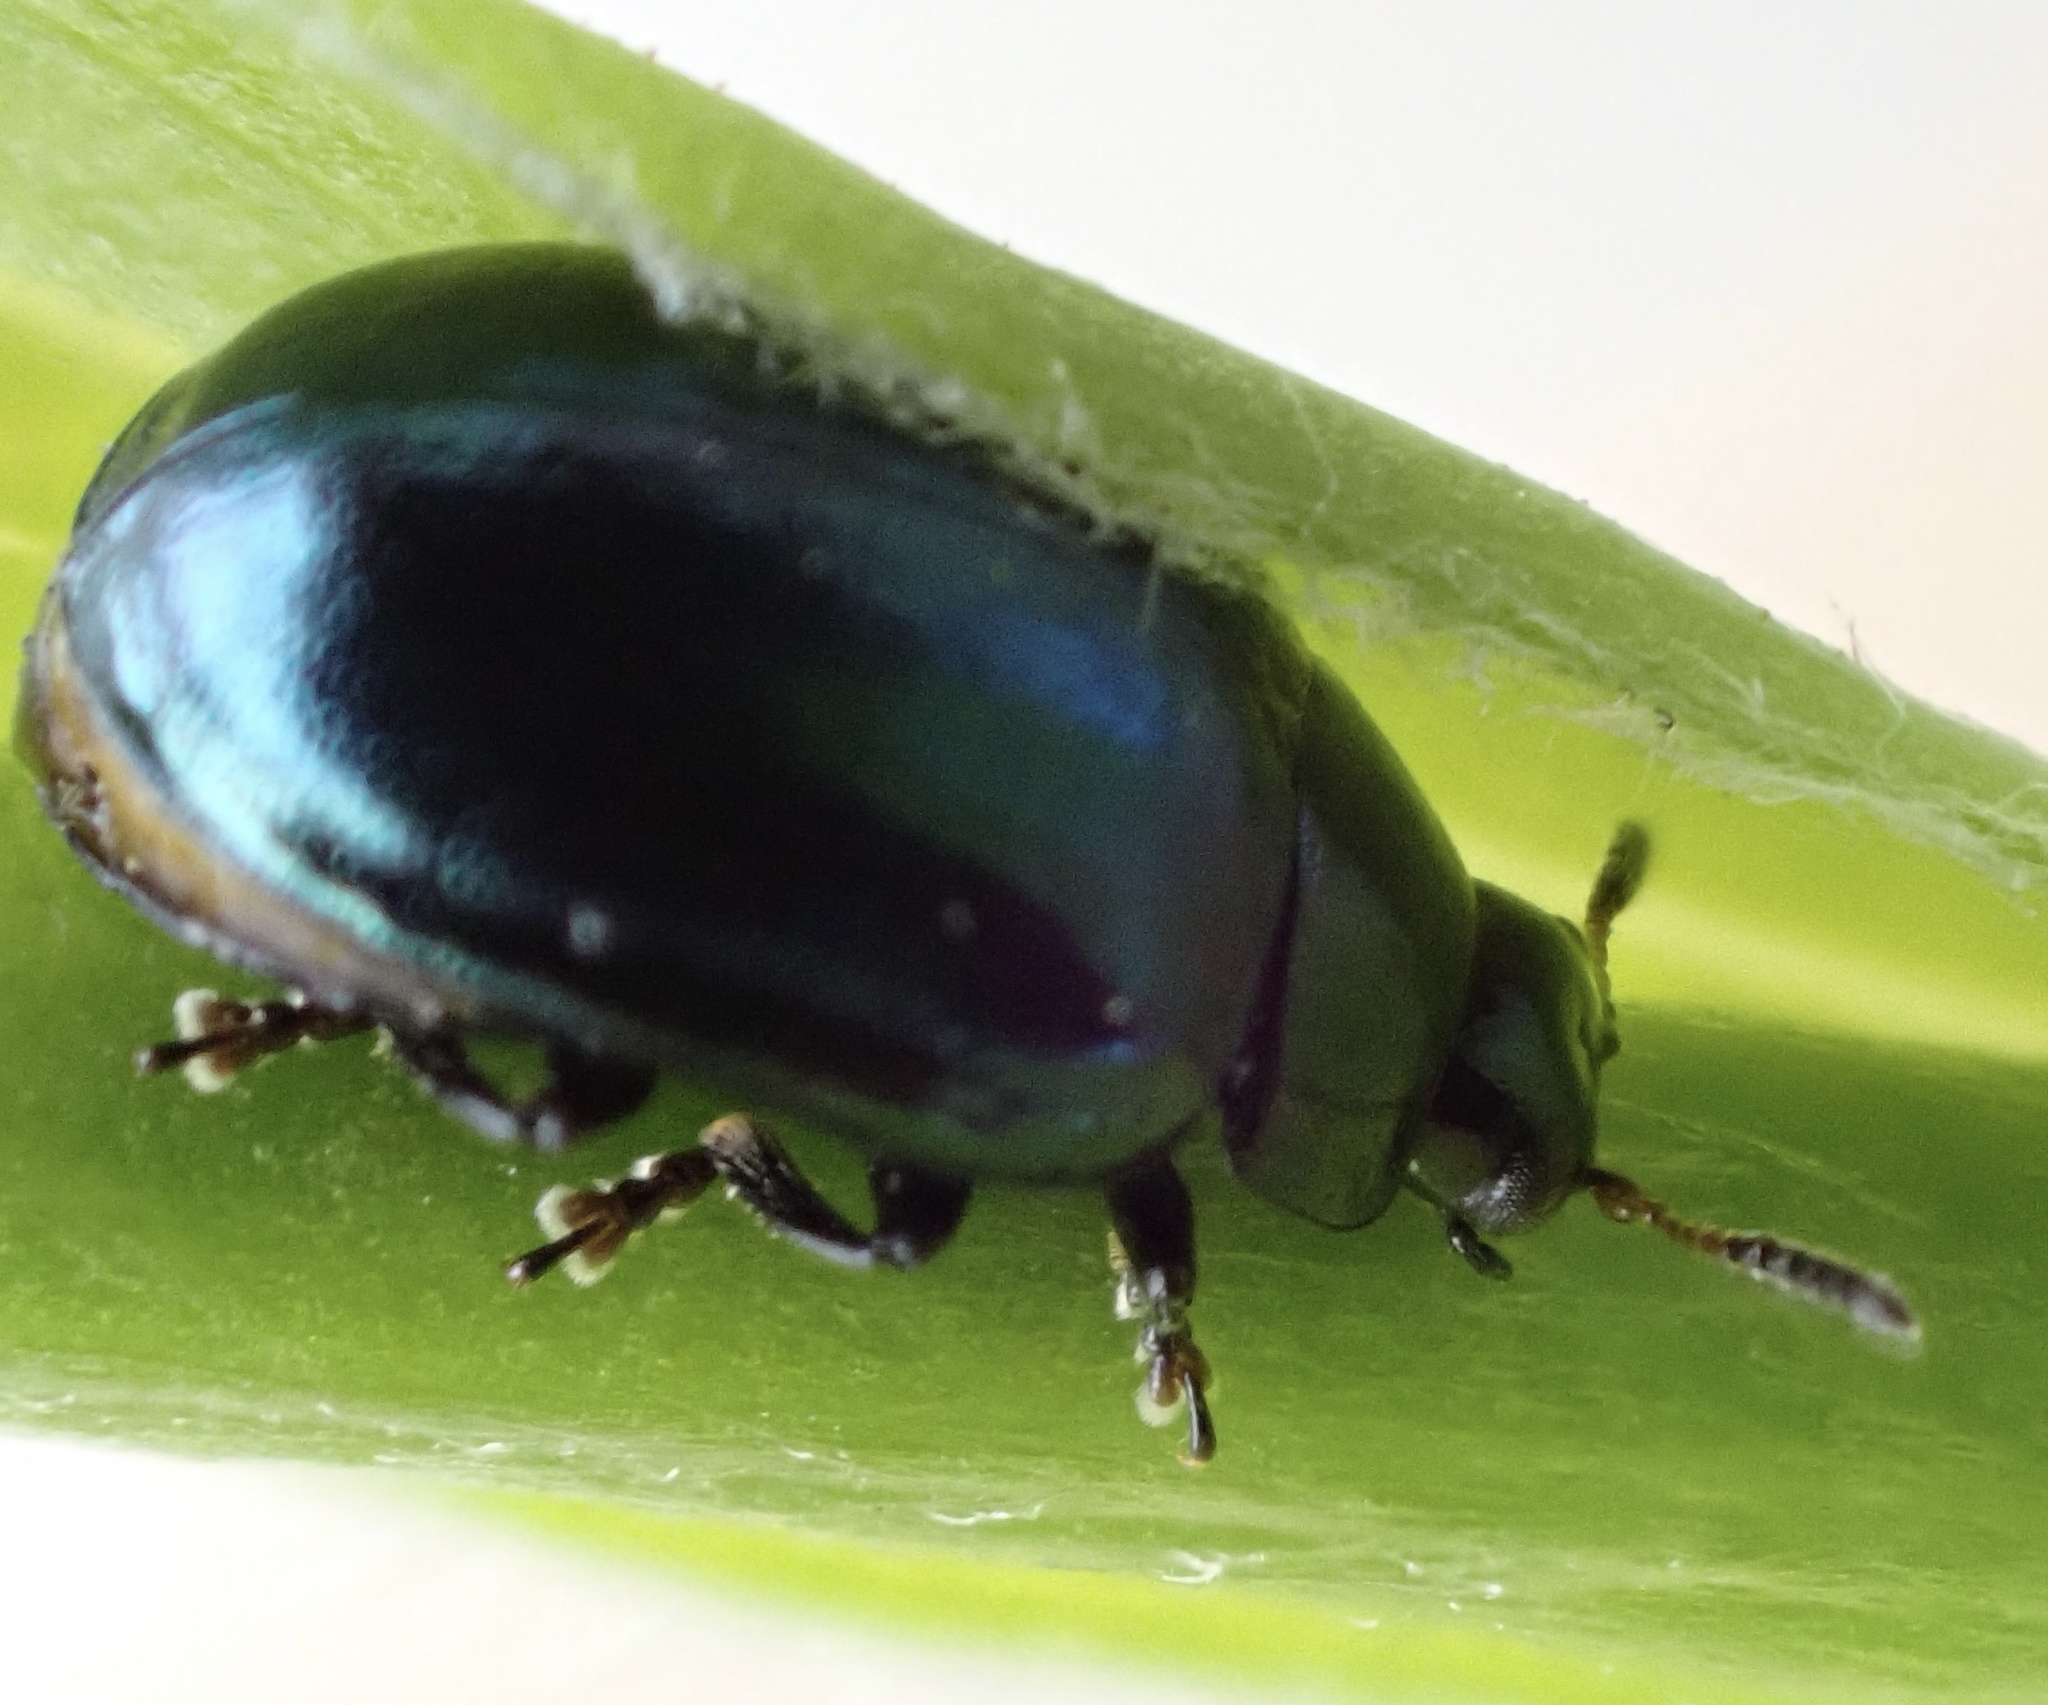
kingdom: Animalia
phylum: Arthropoda
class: Insecta
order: Coleoptera
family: Chrysomelidae
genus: Plagiodera
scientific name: Plagiodera versicolora
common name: Imported willow leaf beetle
